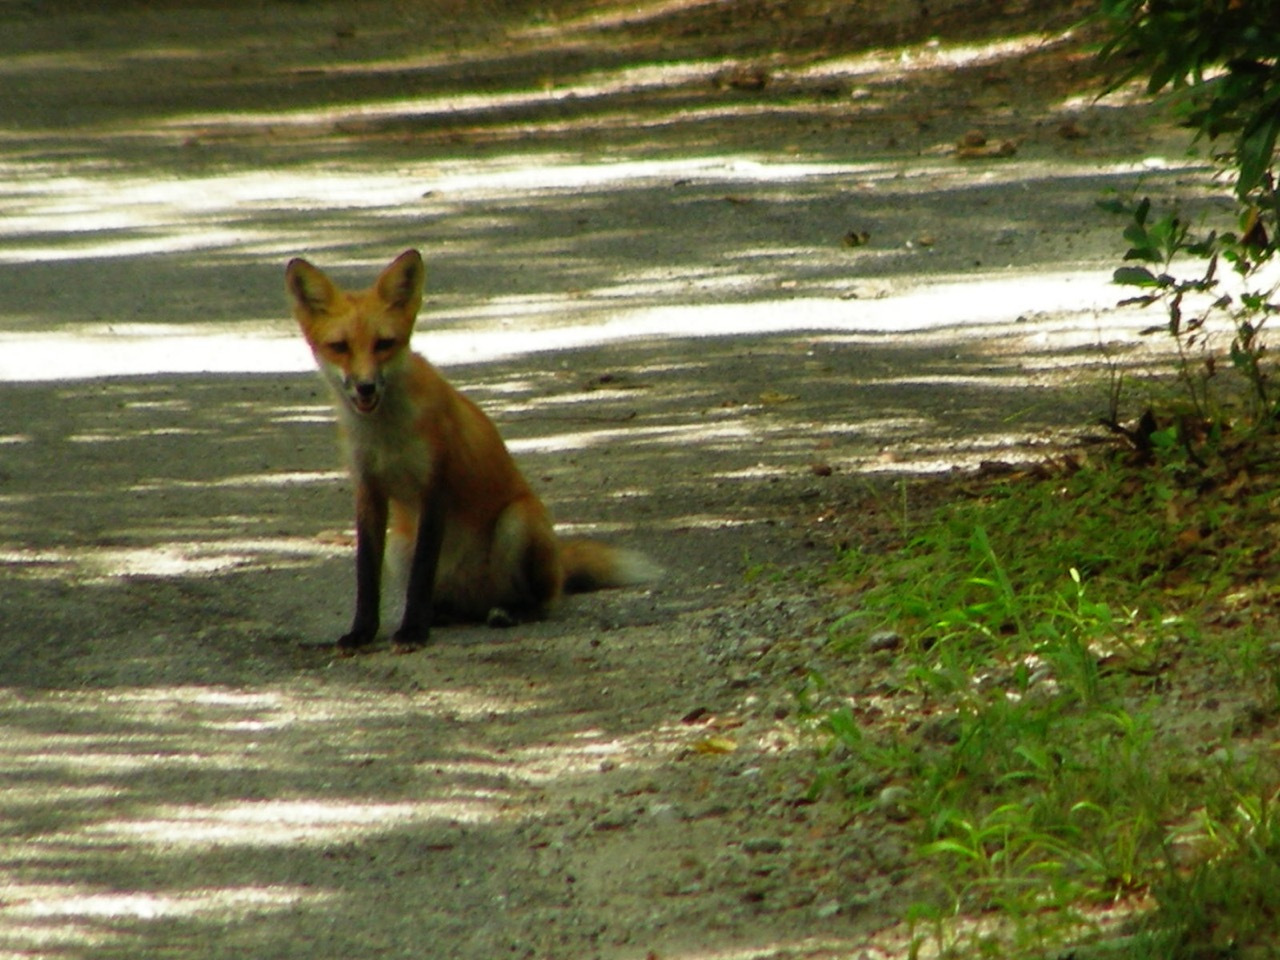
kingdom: Animalia
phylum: Chordata
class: Mammalia
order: Carnivora
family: Canidae
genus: Vulpes
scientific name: Vulpes vulpes
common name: Red fox
